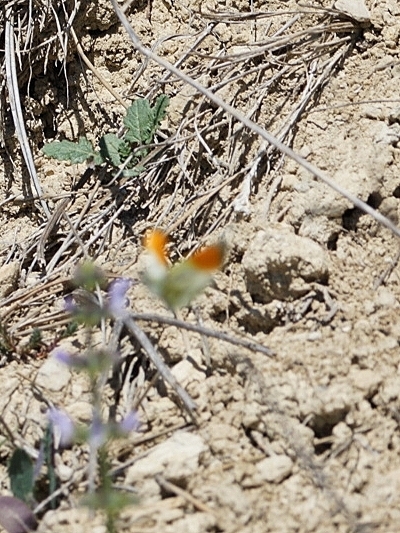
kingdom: Animalia
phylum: Arthropoda
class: Insecta
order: Lepidoptera
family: Pieridae
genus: Anthocharis
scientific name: Anthocharis cardamines
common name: Orange-tip
